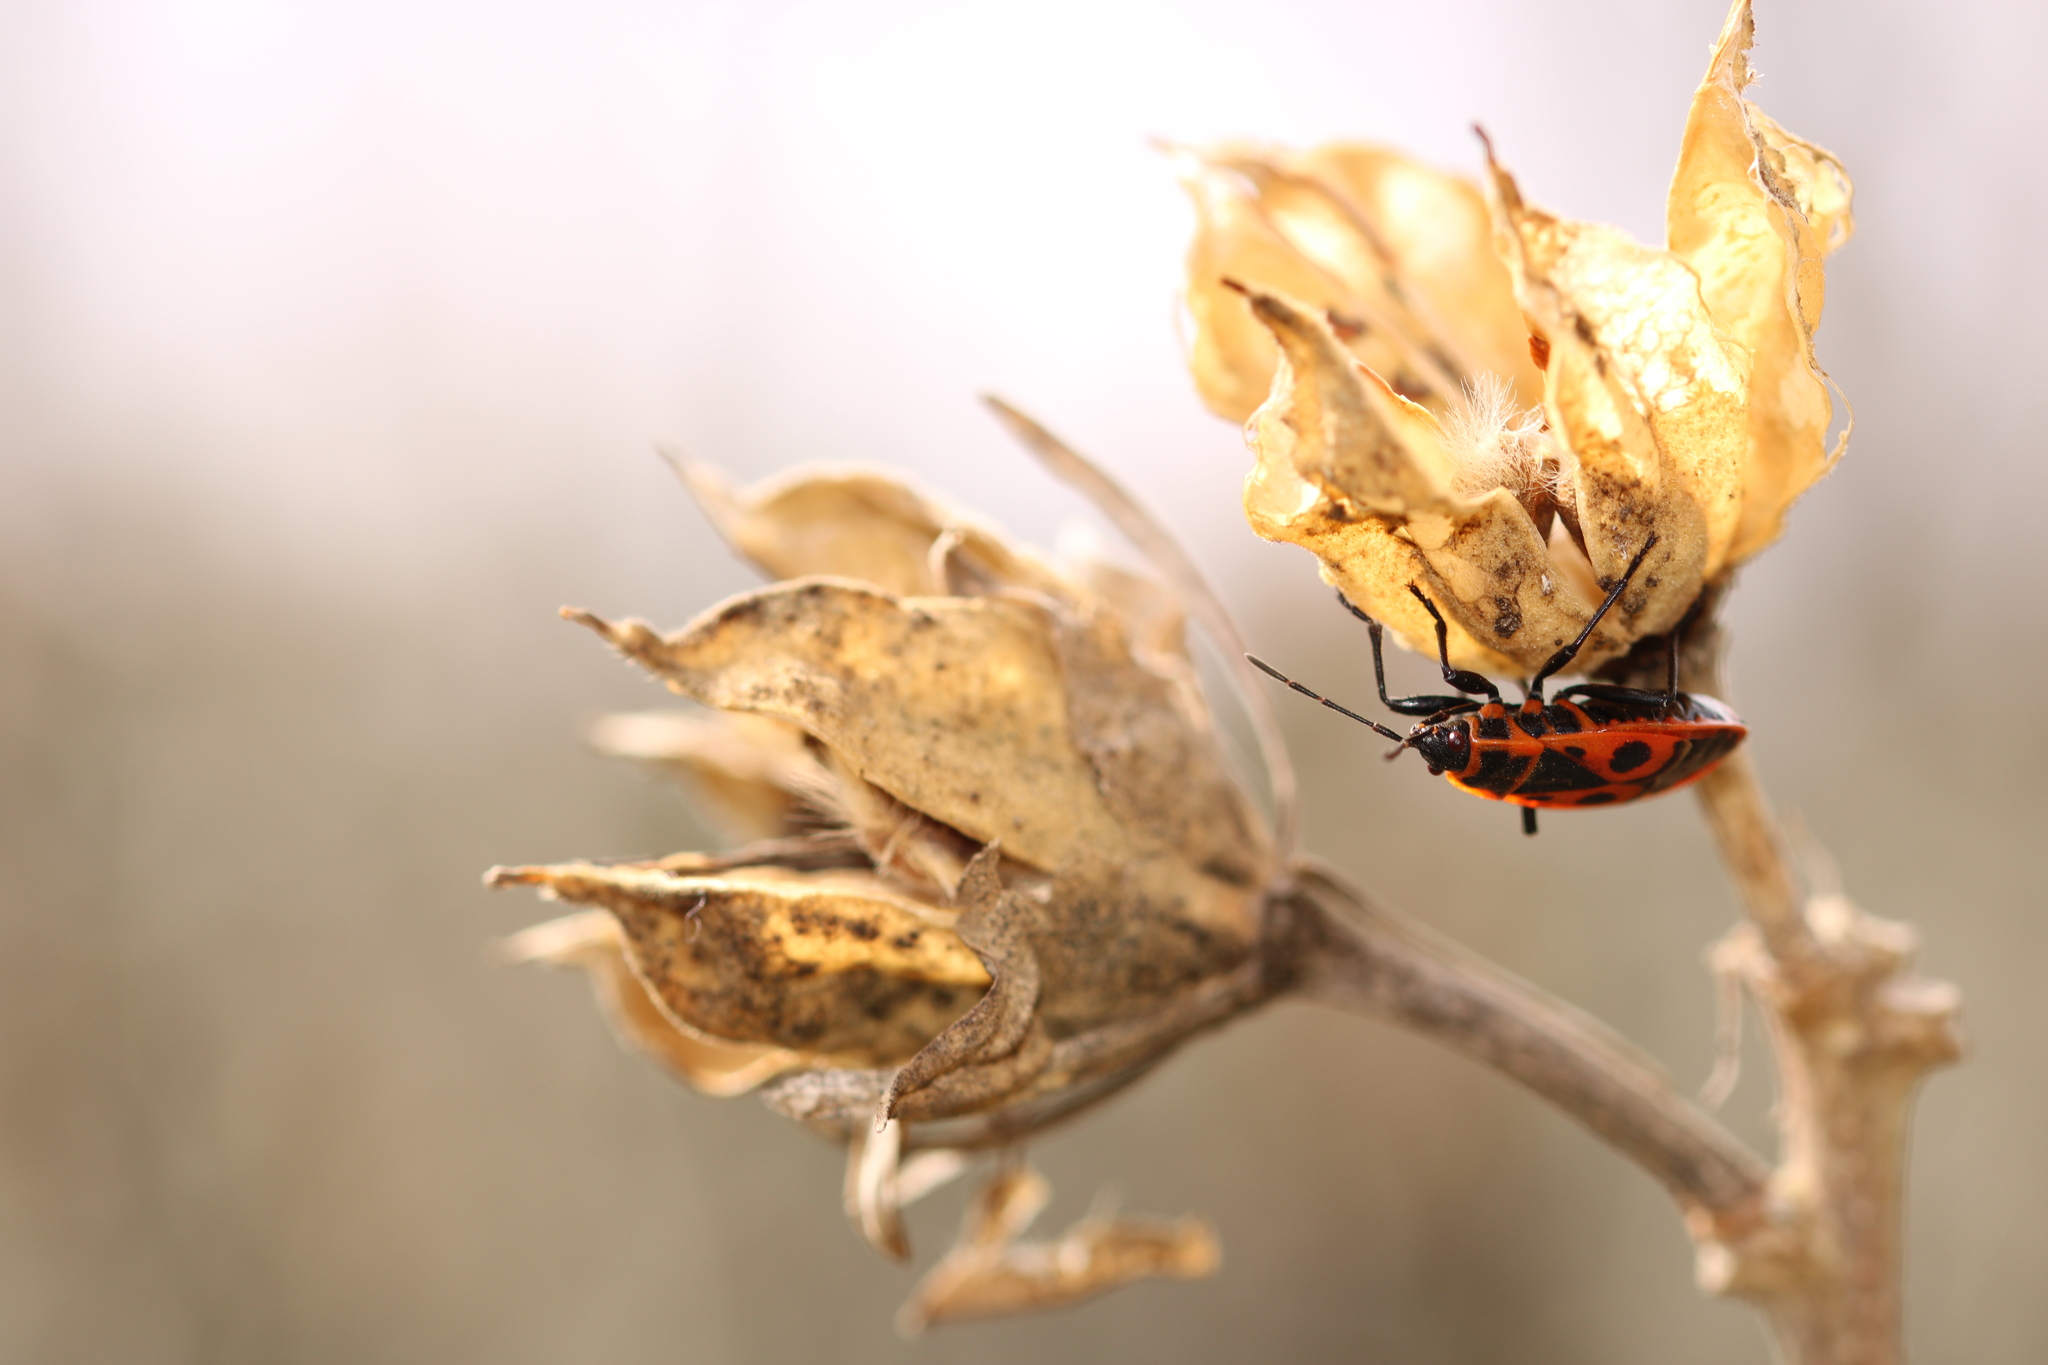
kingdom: Animalia
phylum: Arthropoda
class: Insecta
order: Hemiptera
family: Pyrrhocoridae
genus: Pyrrhocoris
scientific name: Pyrrhocoris apterus
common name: Firebug
